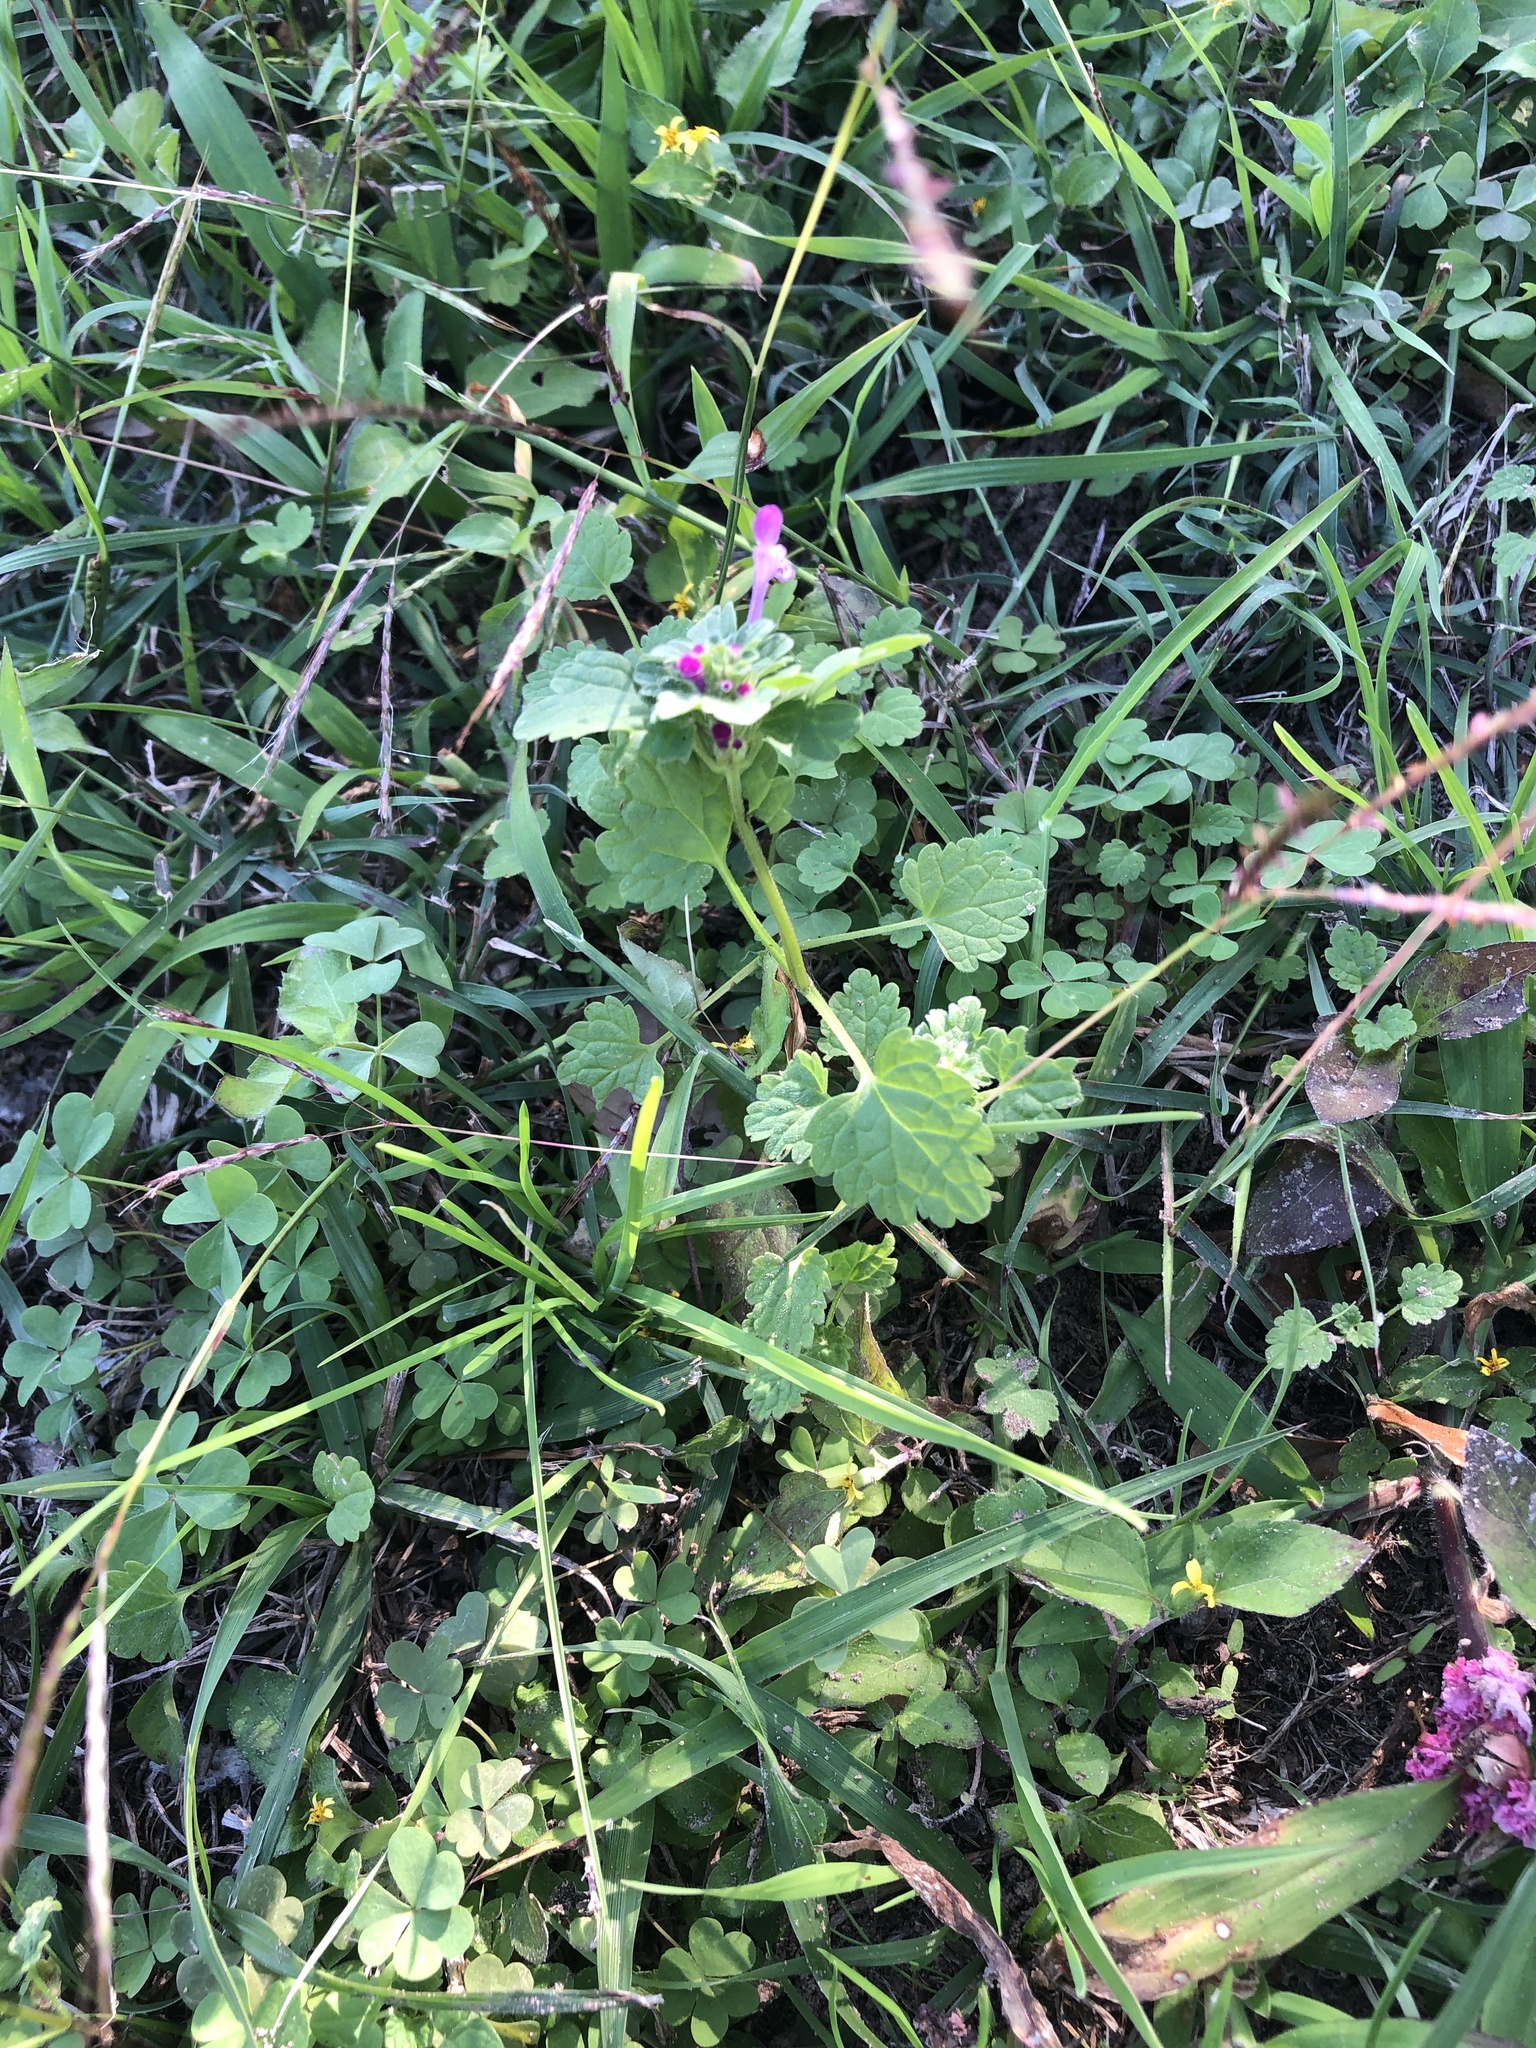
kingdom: Plantae
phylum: Tracheophyta
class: Magnoliopsida
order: Lamiales
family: Lamiaceae
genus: Lamium
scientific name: Lamium amplexicaule
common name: Henbit dead-nettle
